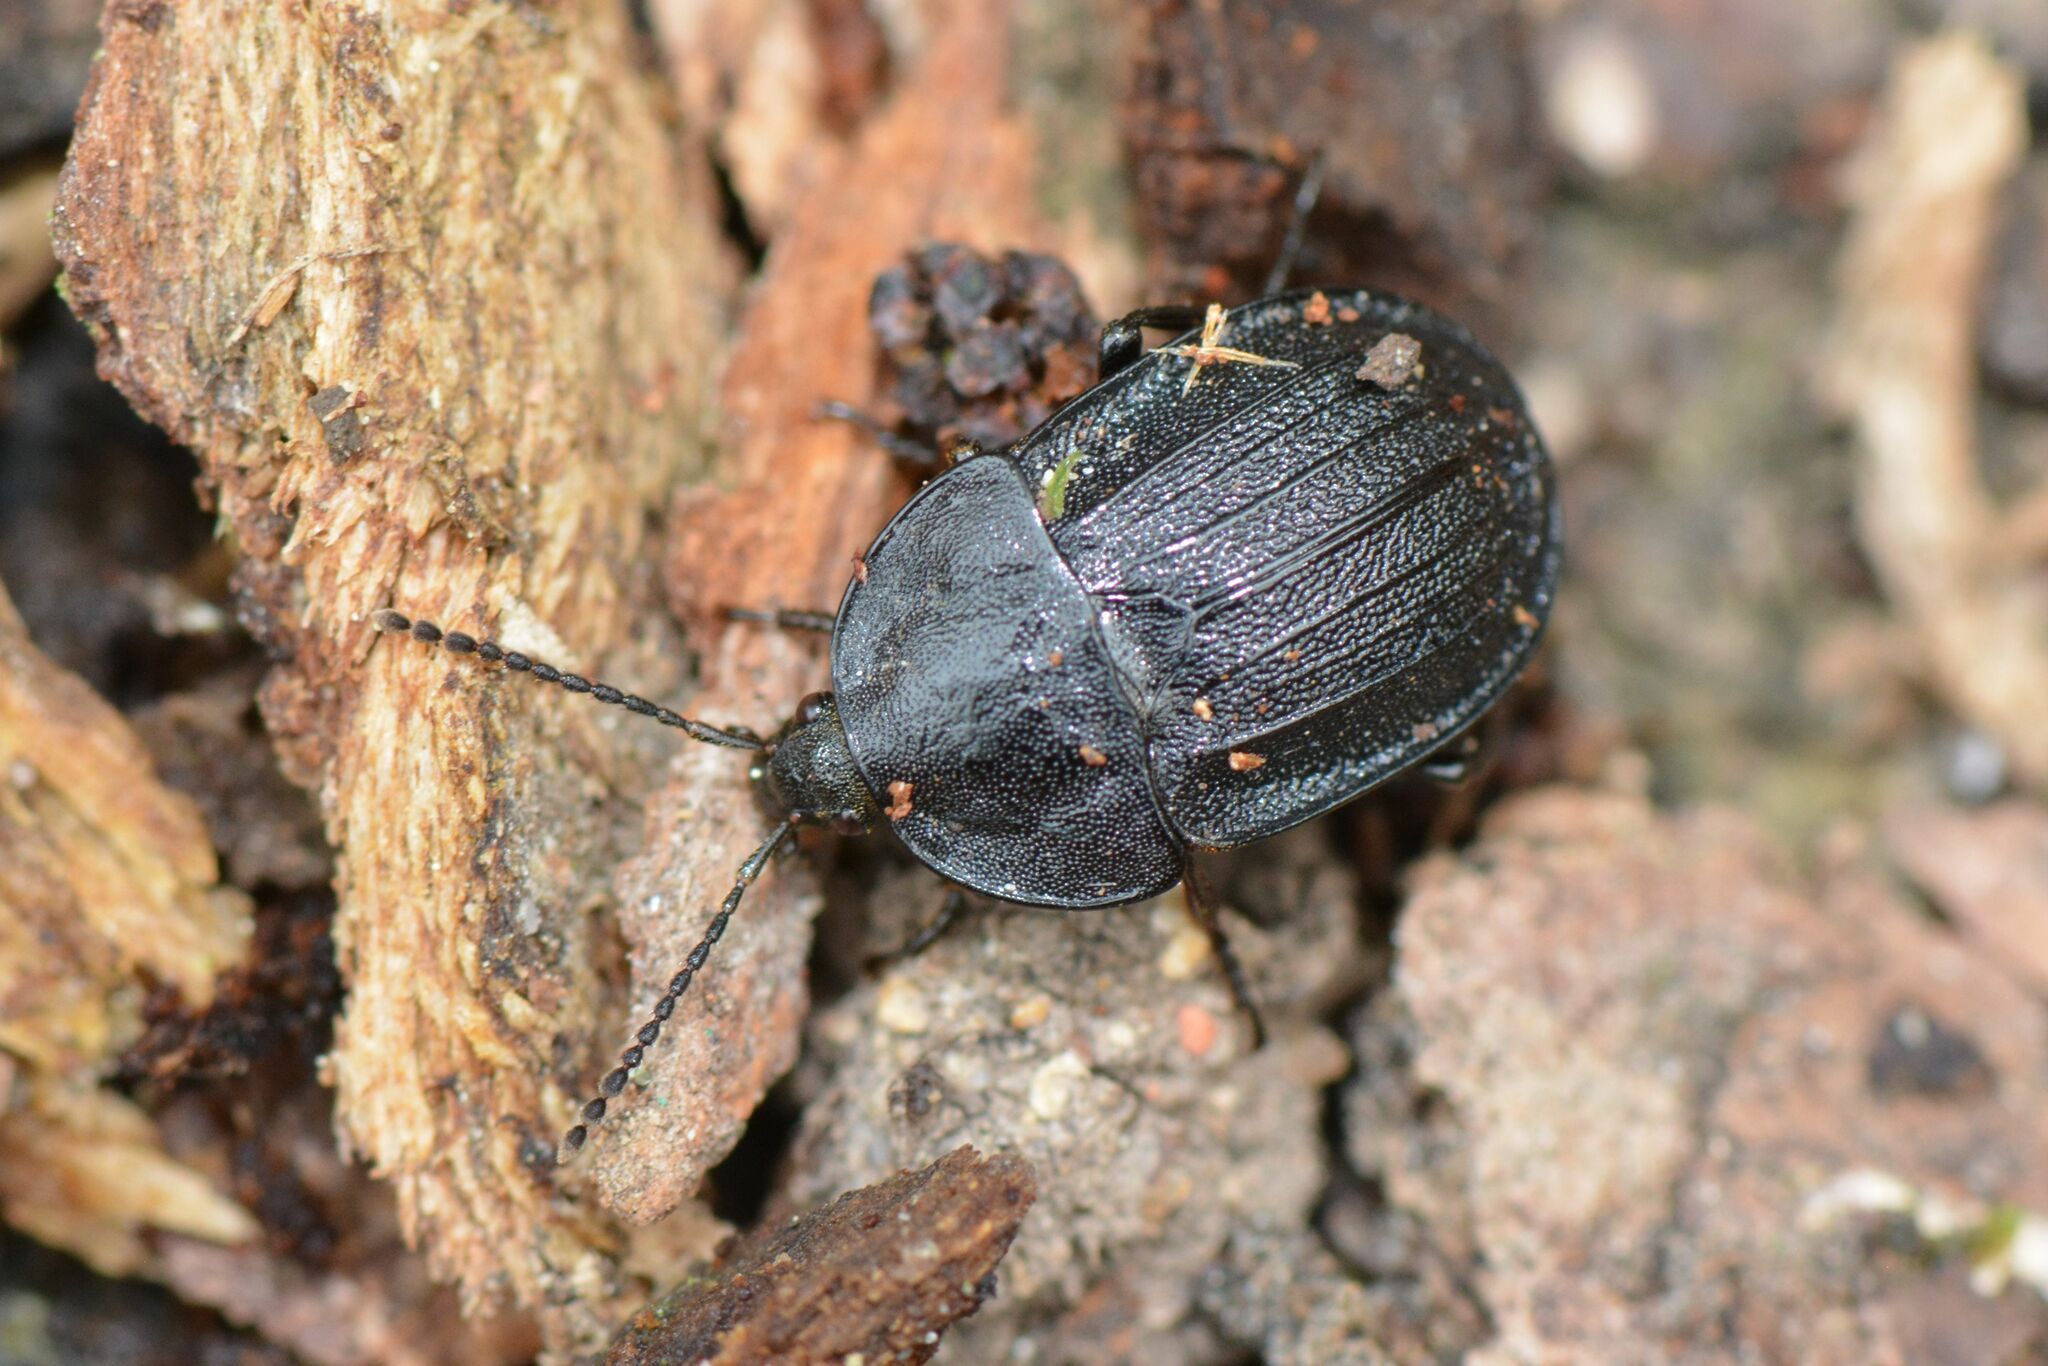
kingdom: Animalia
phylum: Arthropoda
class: Insecta
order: Coleoptera
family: Staphylinidae
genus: Silpha
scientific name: Silpha atrata
